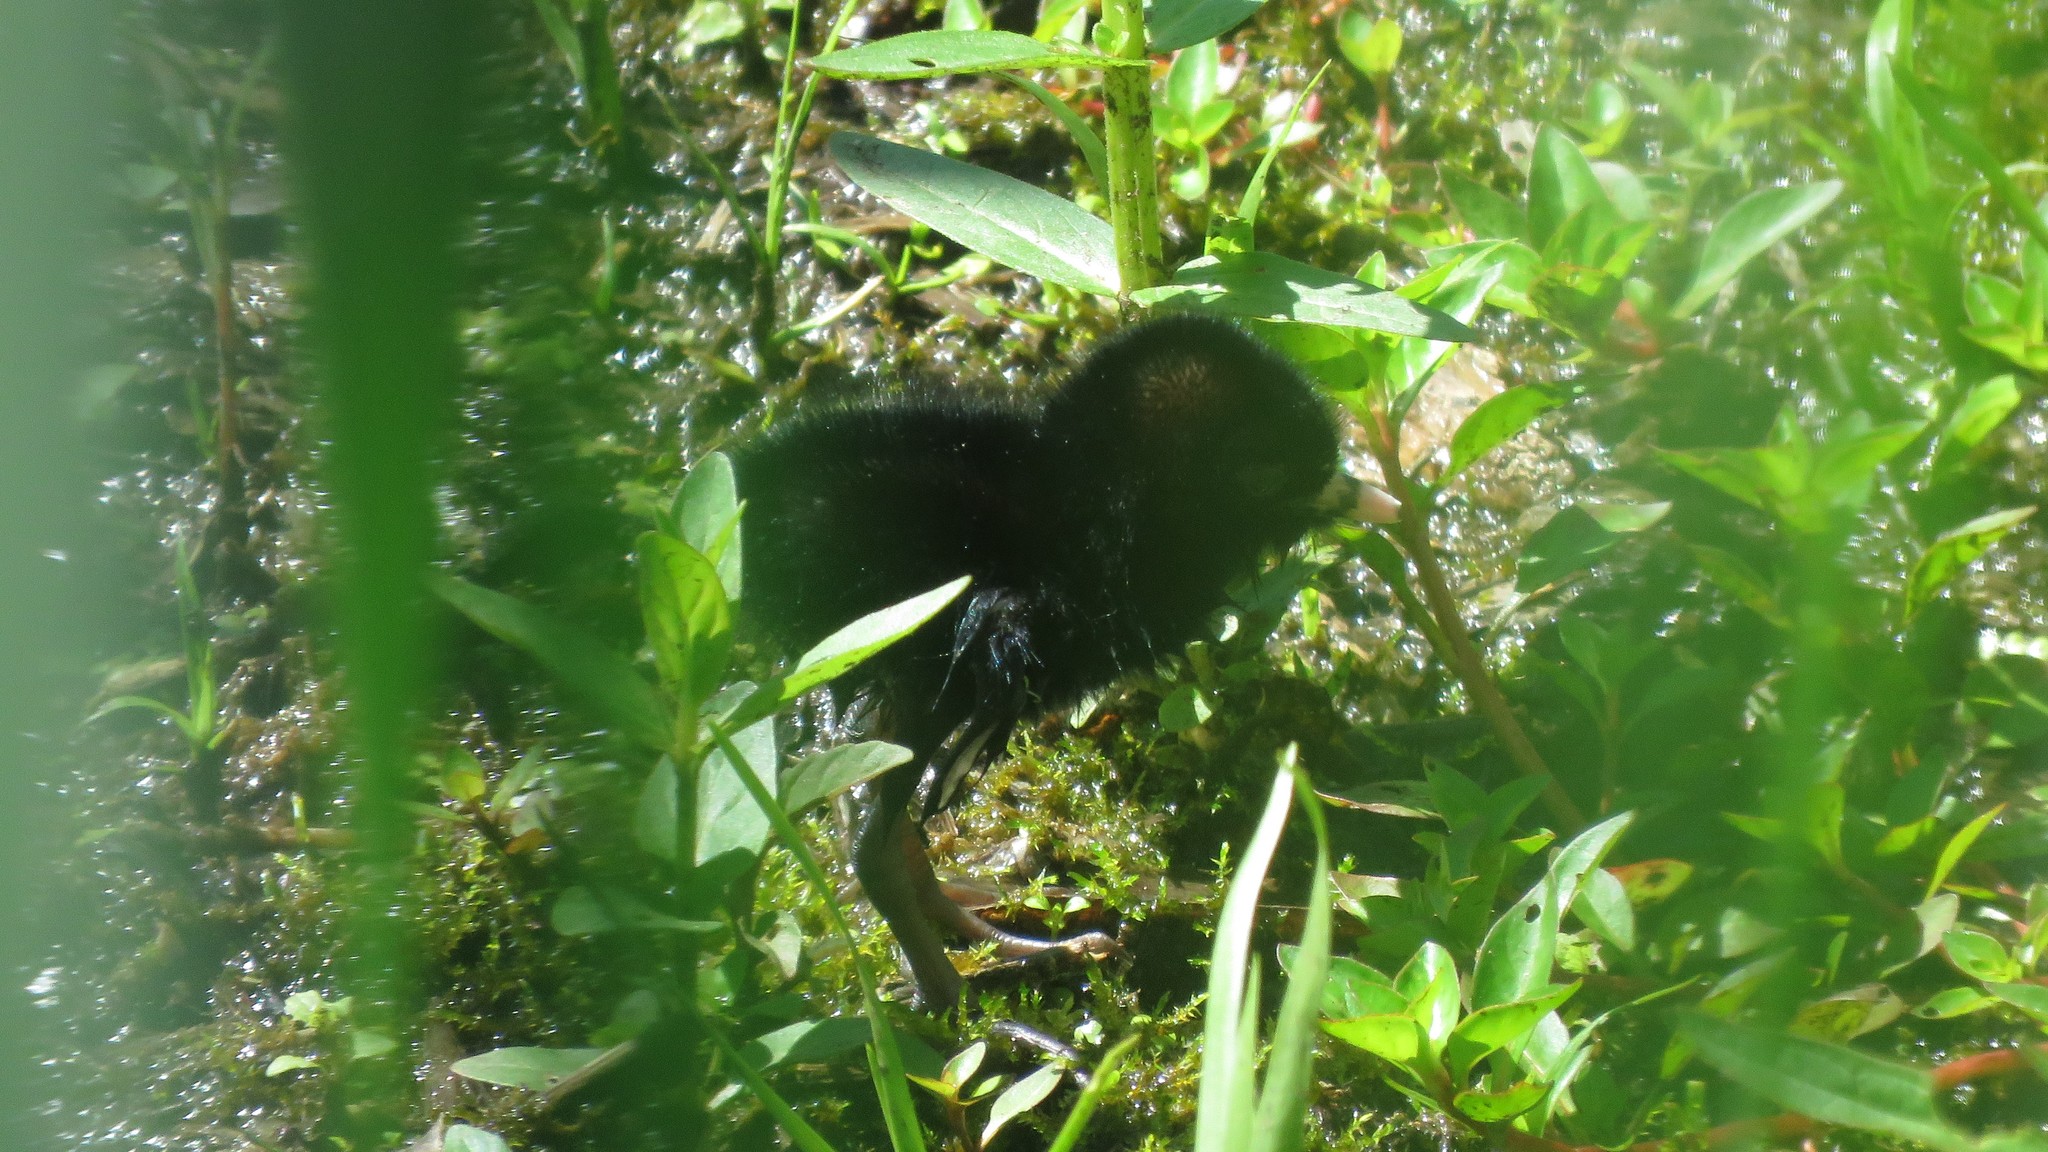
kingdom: Animalia
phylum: Chordata
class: Aves
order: Gruiformes
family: Rallidae
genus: Rallus
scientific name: Rallus limicola
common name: Virginia rail
